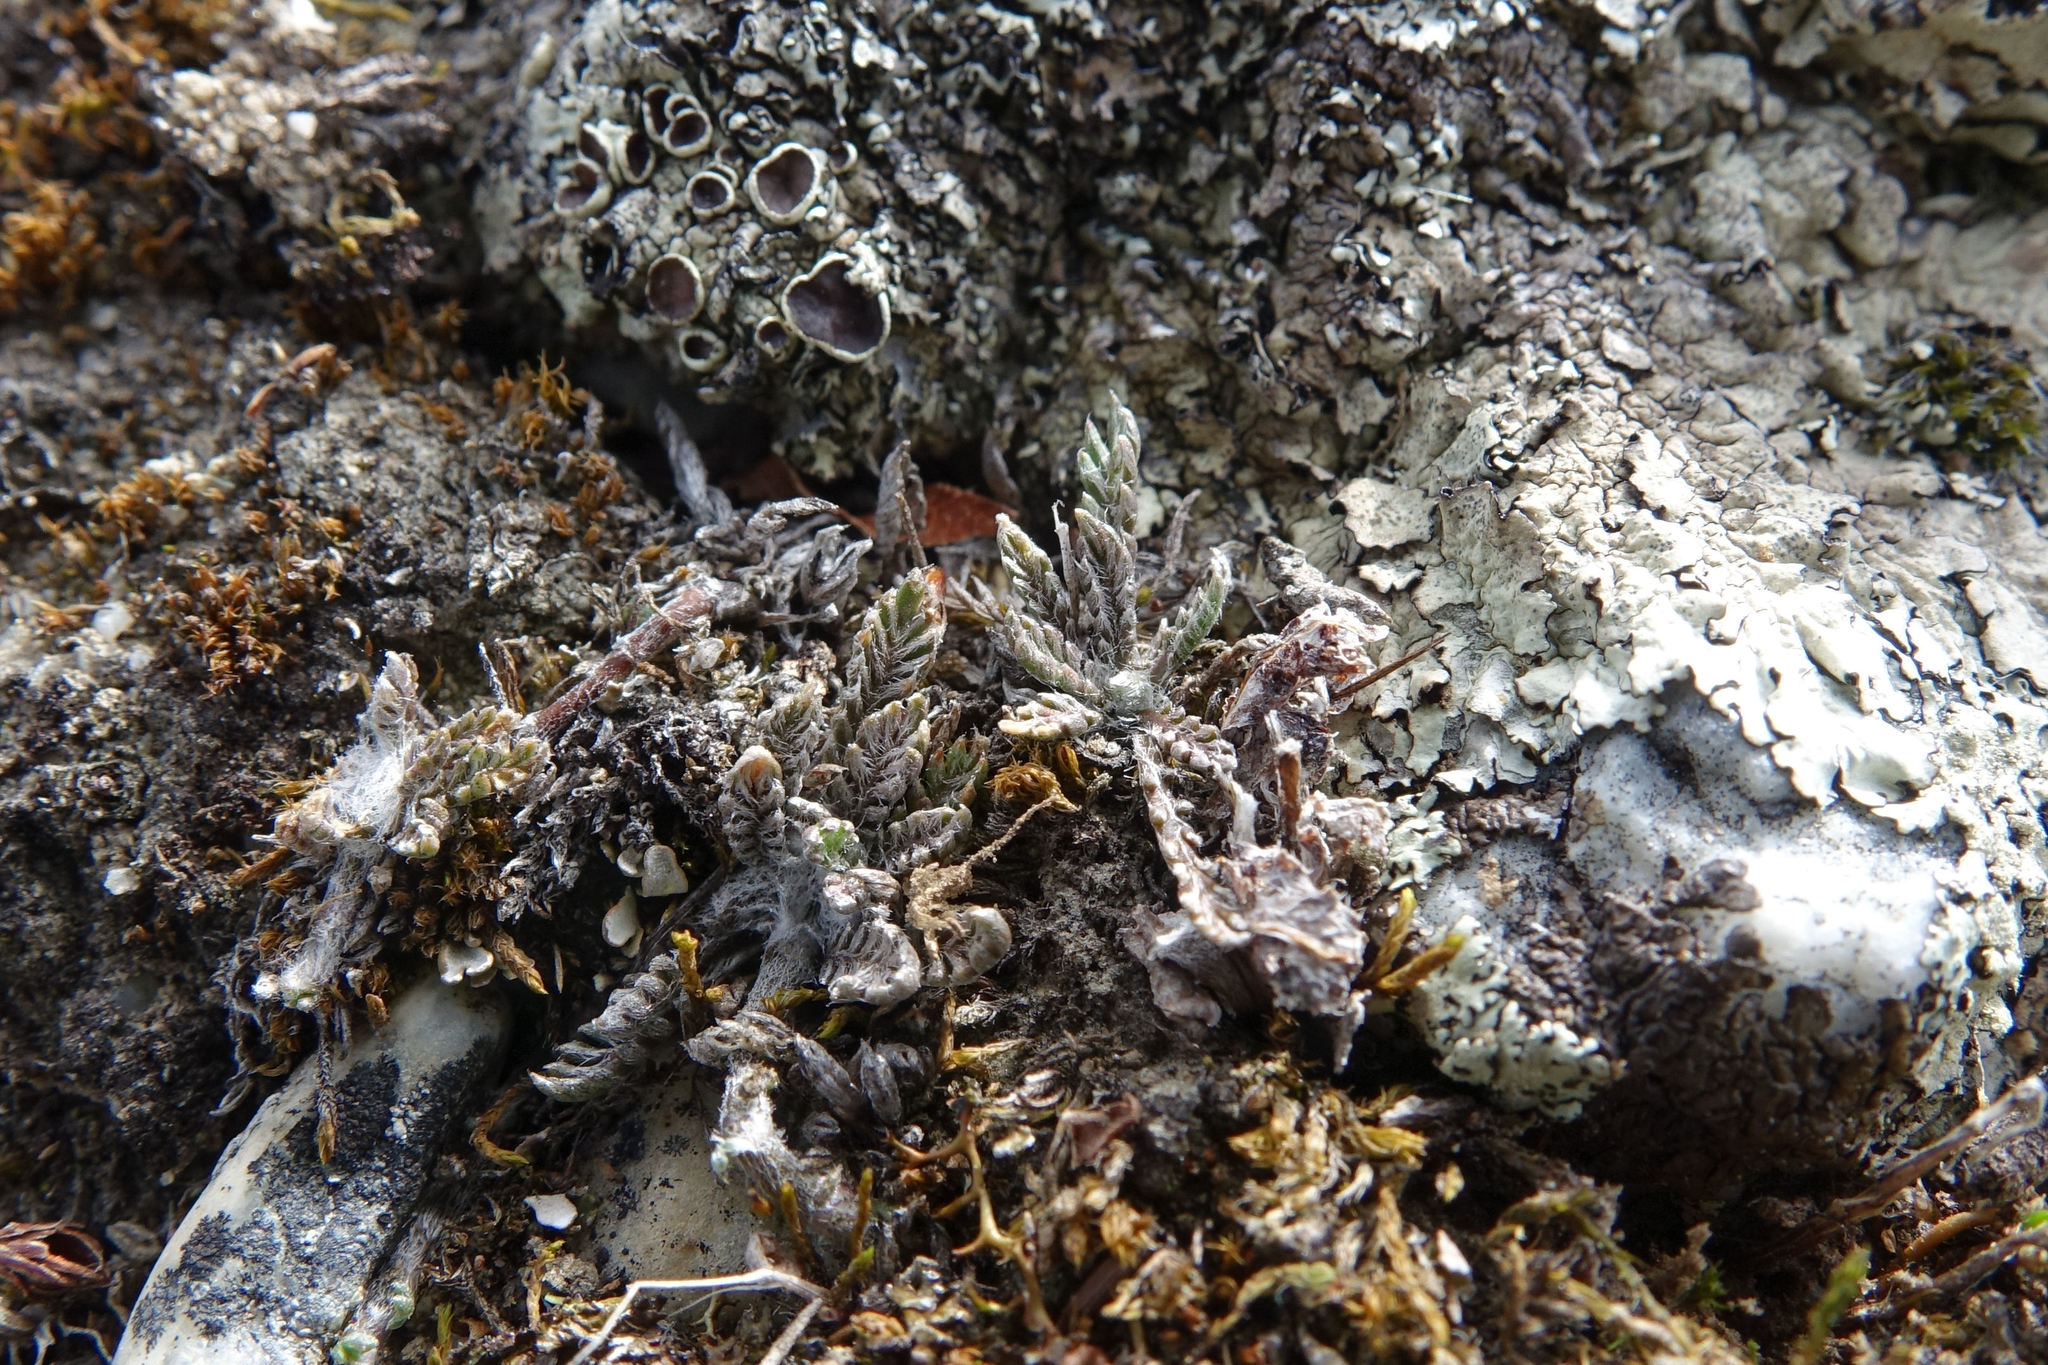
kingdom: Plantae
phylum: Tracheophyta
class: Magnoliopsida
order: Asterales
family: Asteraceae
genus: Leptinella
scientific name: Leptinella conjuncta
